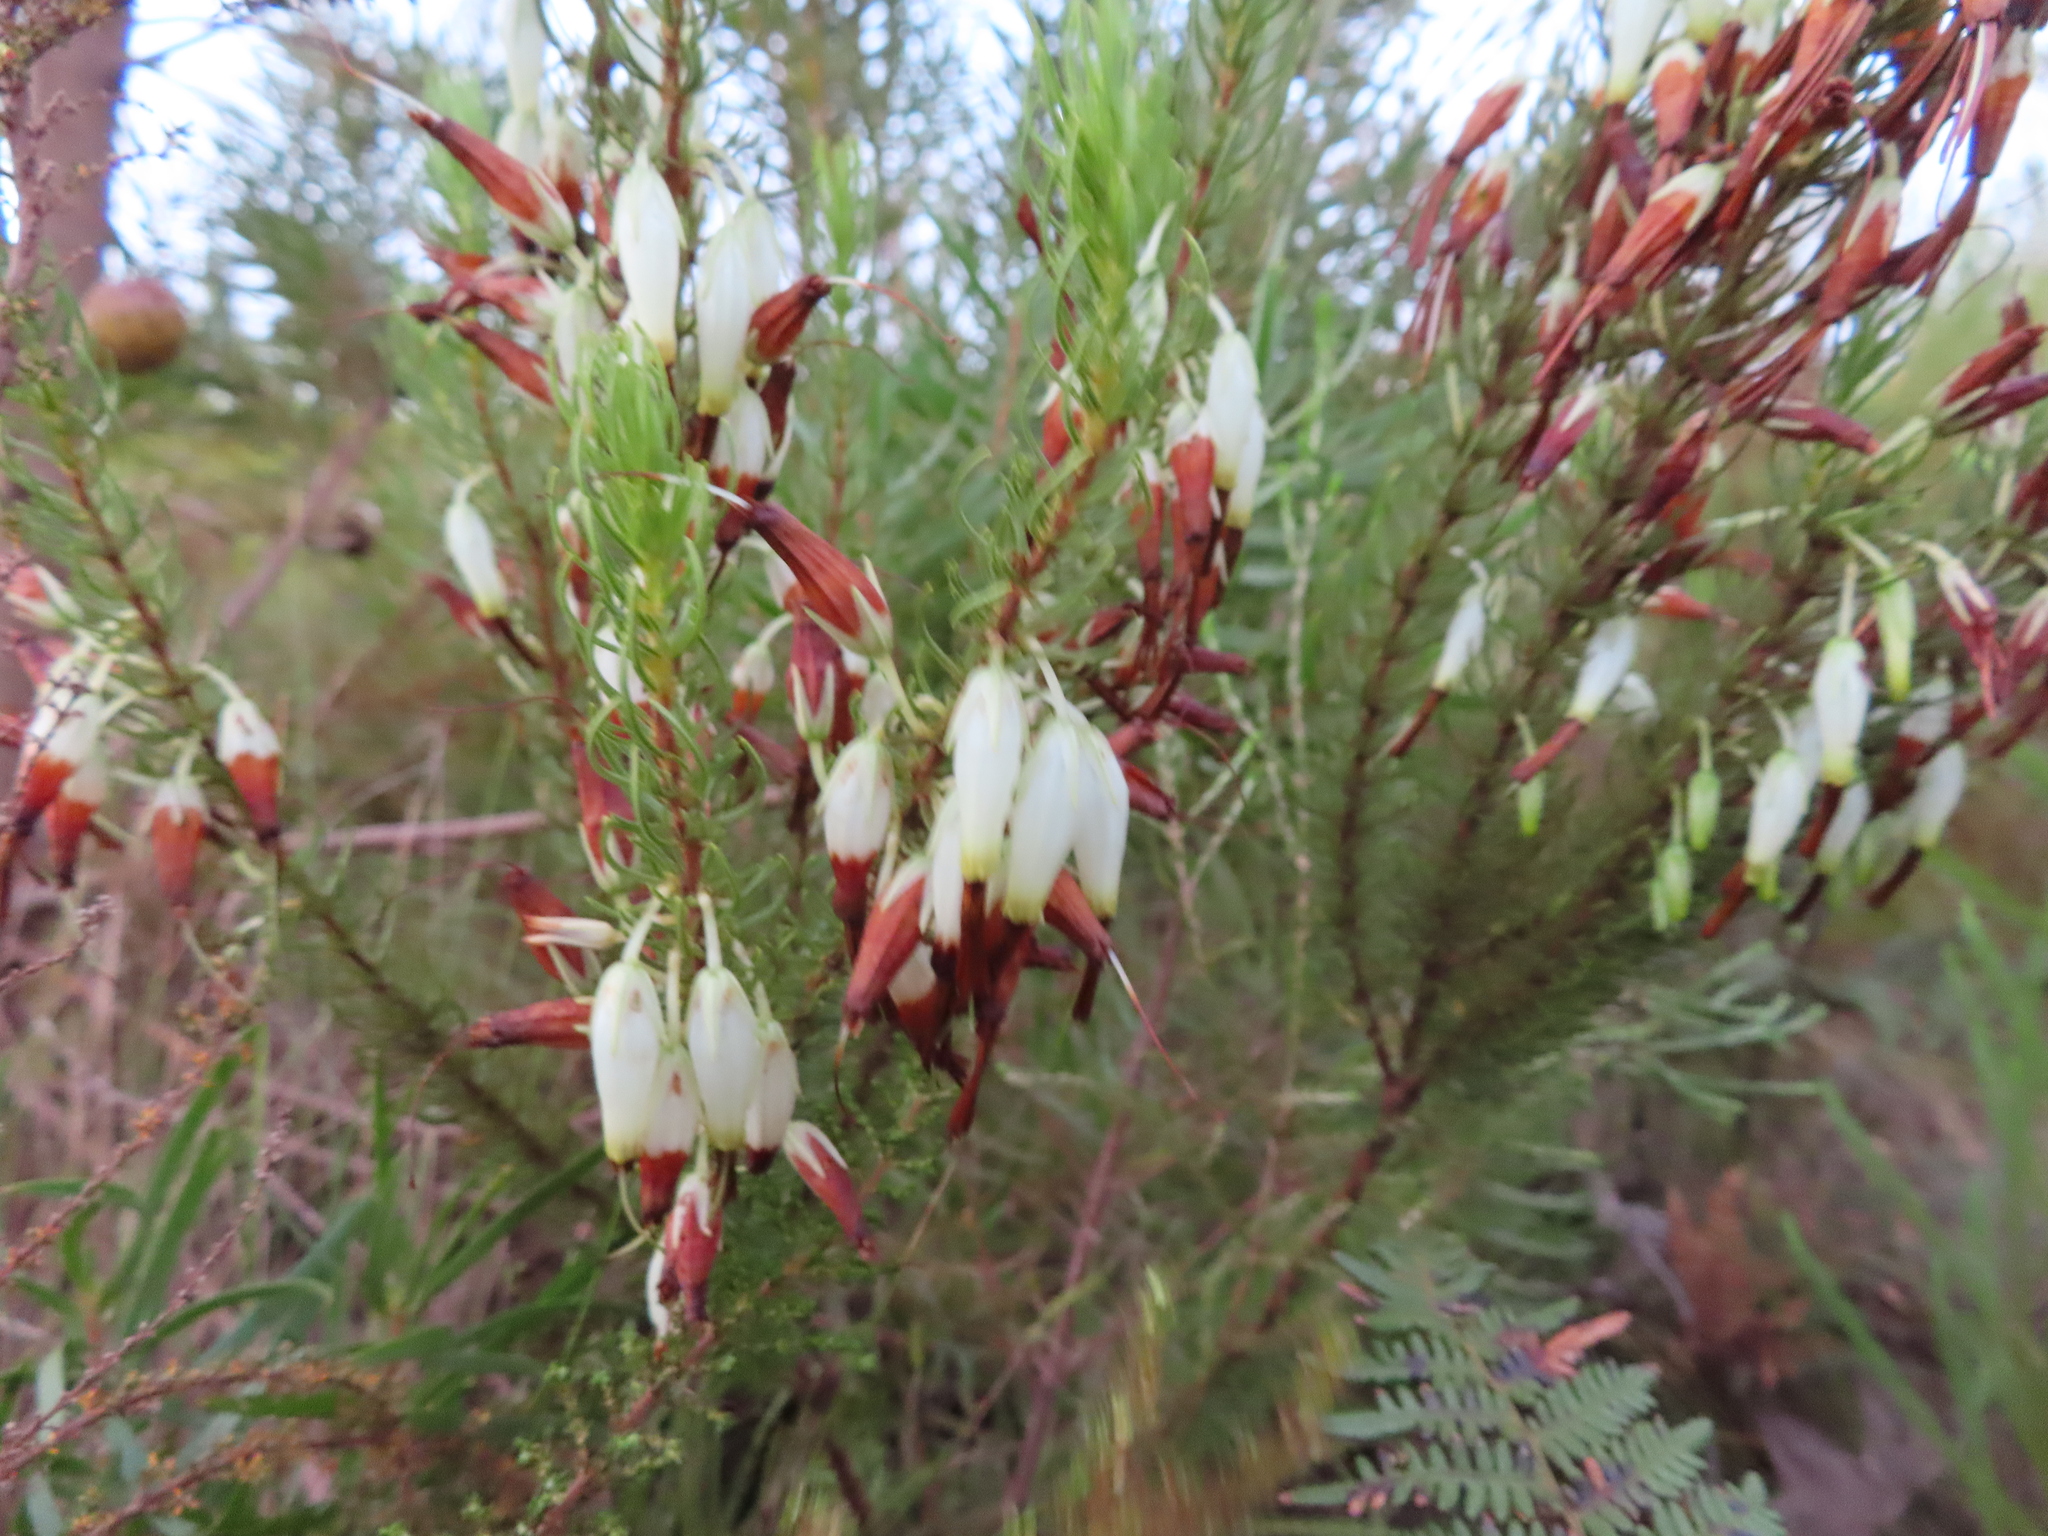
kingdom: Plantae
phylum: Tracheophyta
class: Magnoliopsida
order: Ericales
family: Ericaceae
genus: Erica
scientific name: Erica plukenetii
